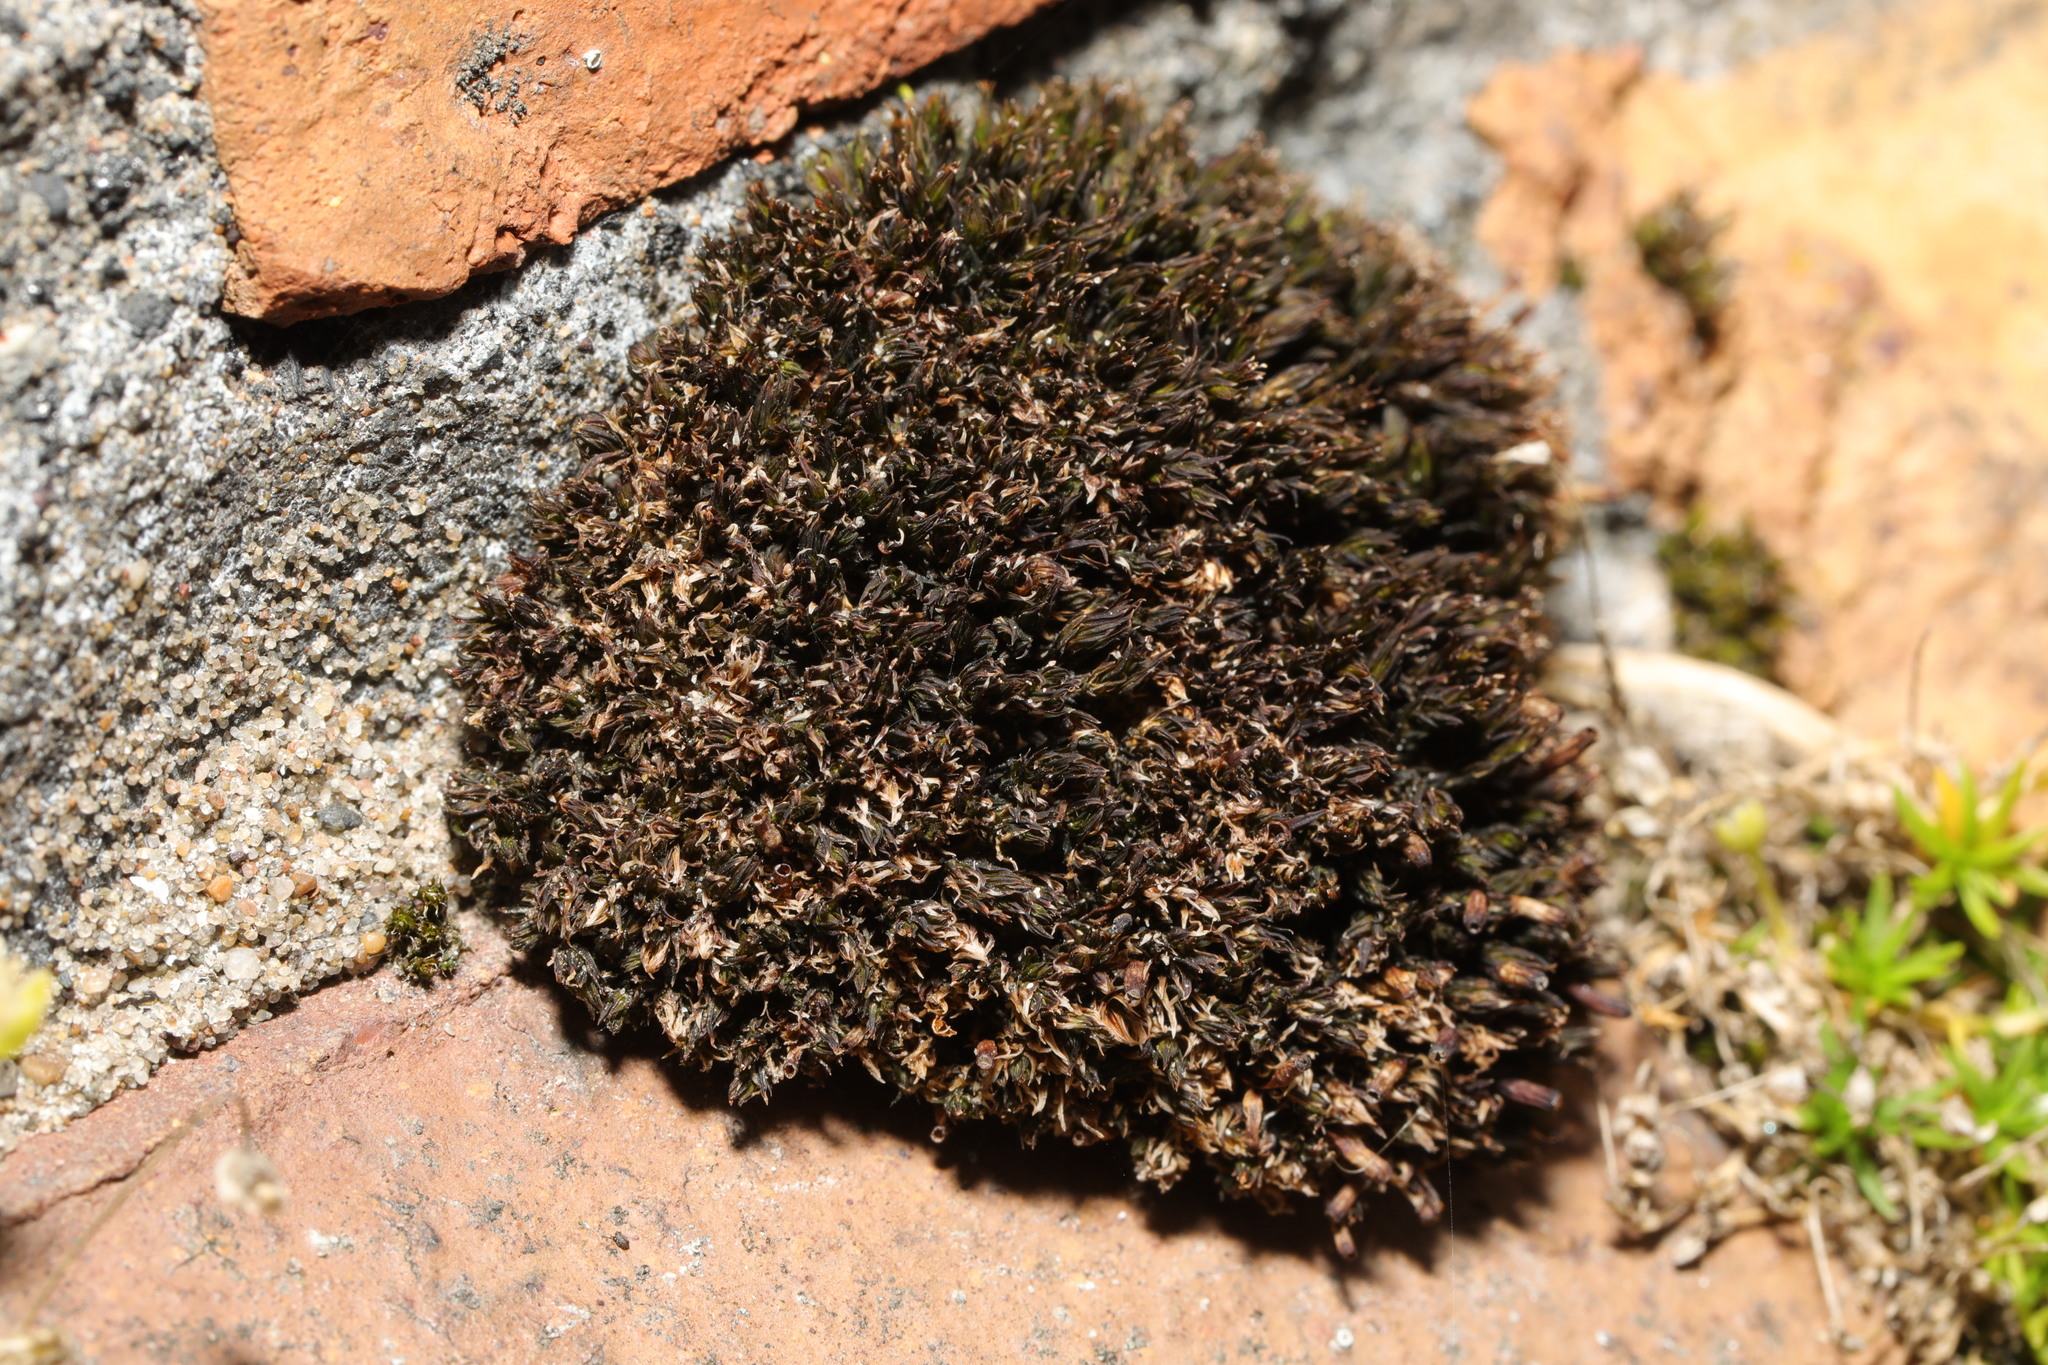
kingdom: Plantae
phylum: Bryophyta
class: Bryopsida
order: Orthotrichales
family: Orthotrichaceae
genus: Orthotrichum
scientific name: Orthotrichum anomalum
